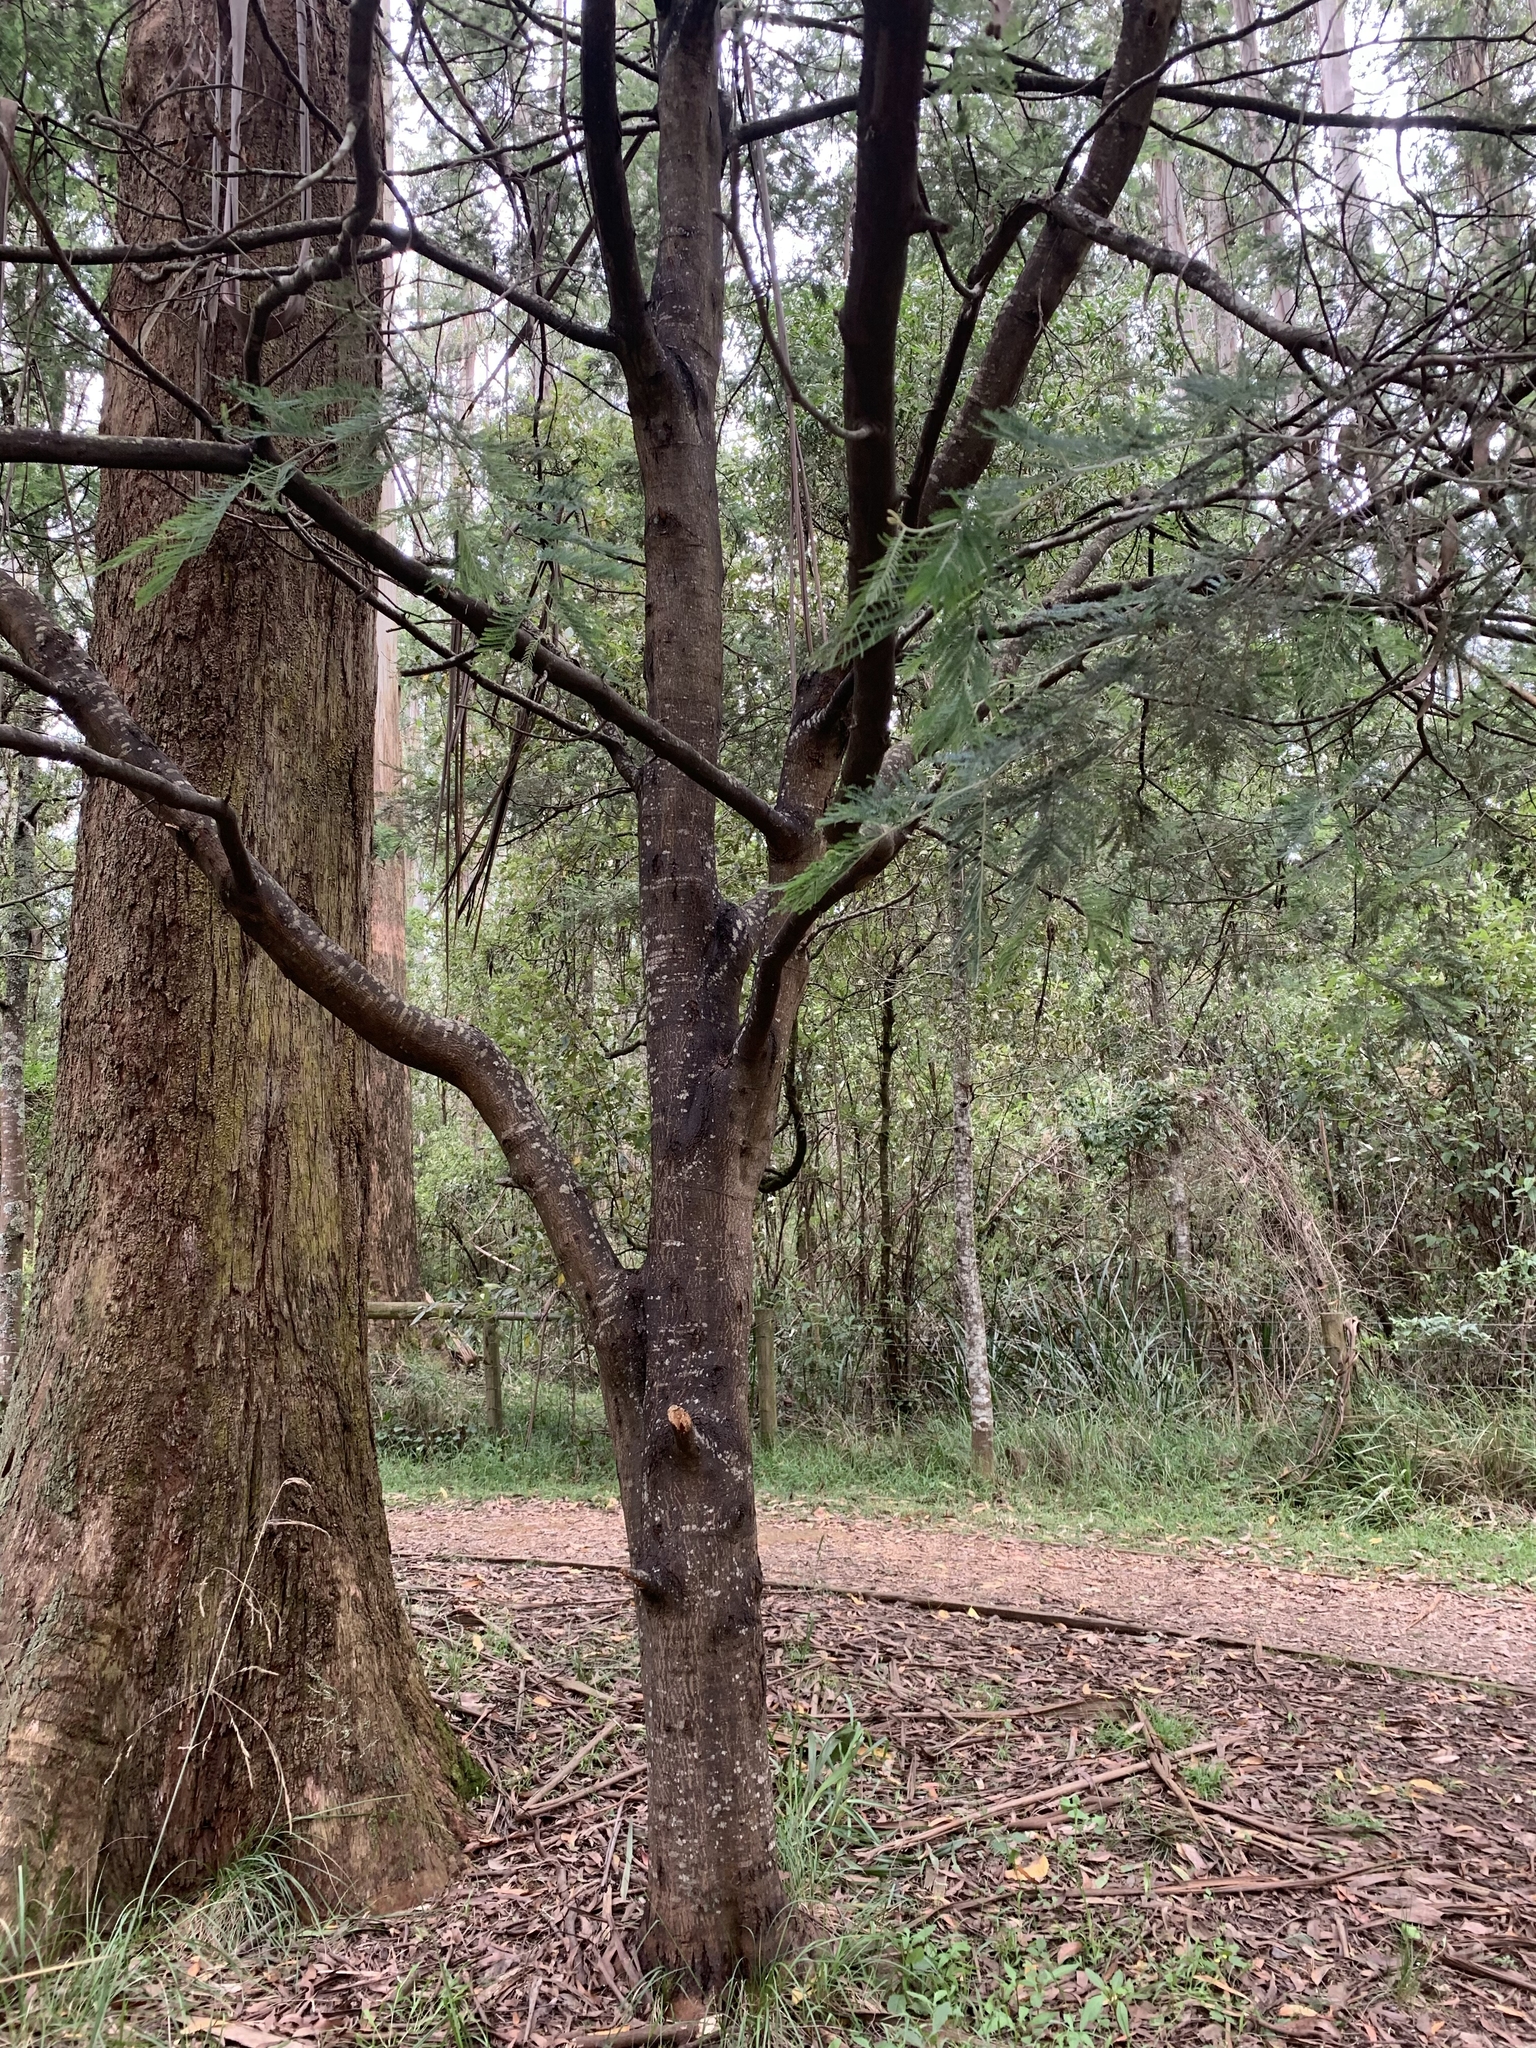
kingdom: Plantae
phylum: Tracheophyta
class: Magnoliopsida
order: Fabales
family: Fabaceae
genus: Acacia
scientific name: Acacia dealbata
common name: Silver wattle
